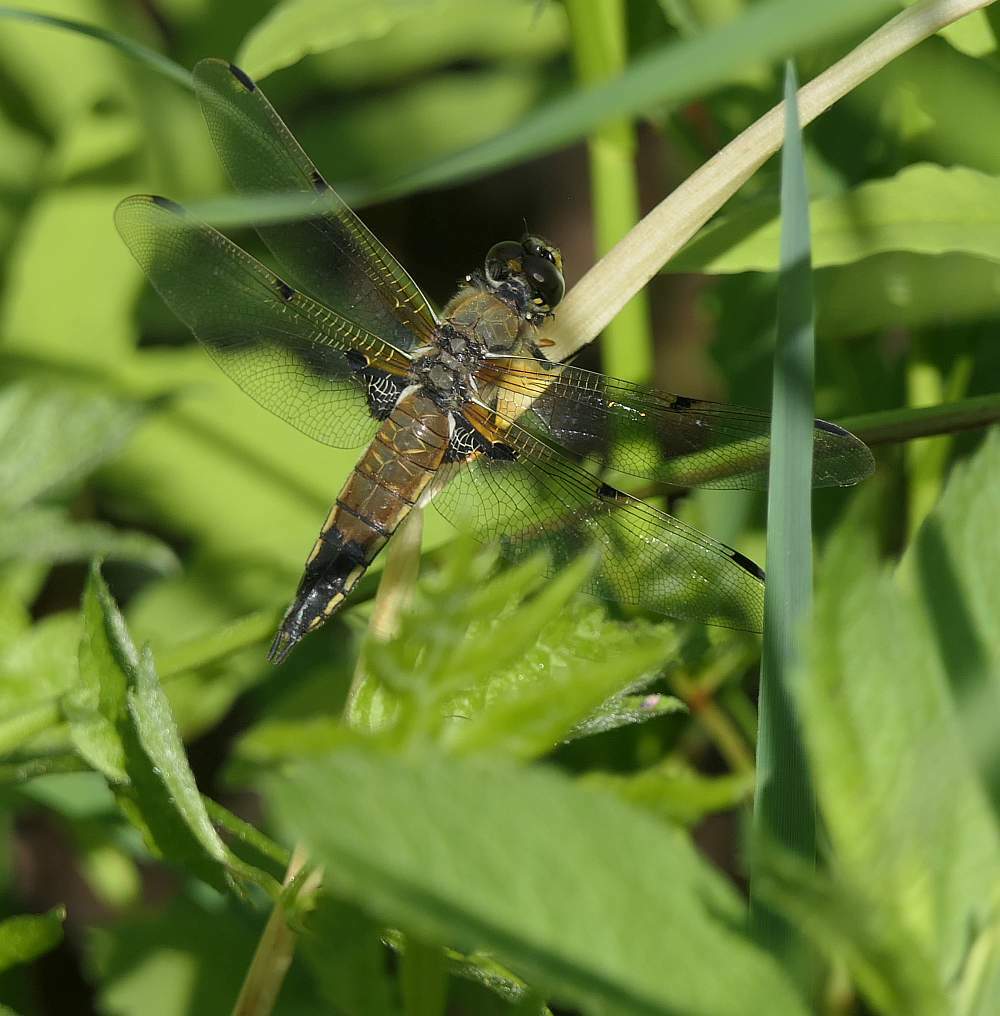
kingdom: Animalia
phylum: Arthropoda
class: Insecta
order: Odonata
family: Libellulidae
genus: Libellula
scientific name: Libellula quadrimaculata
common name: Four-spotted chaser
